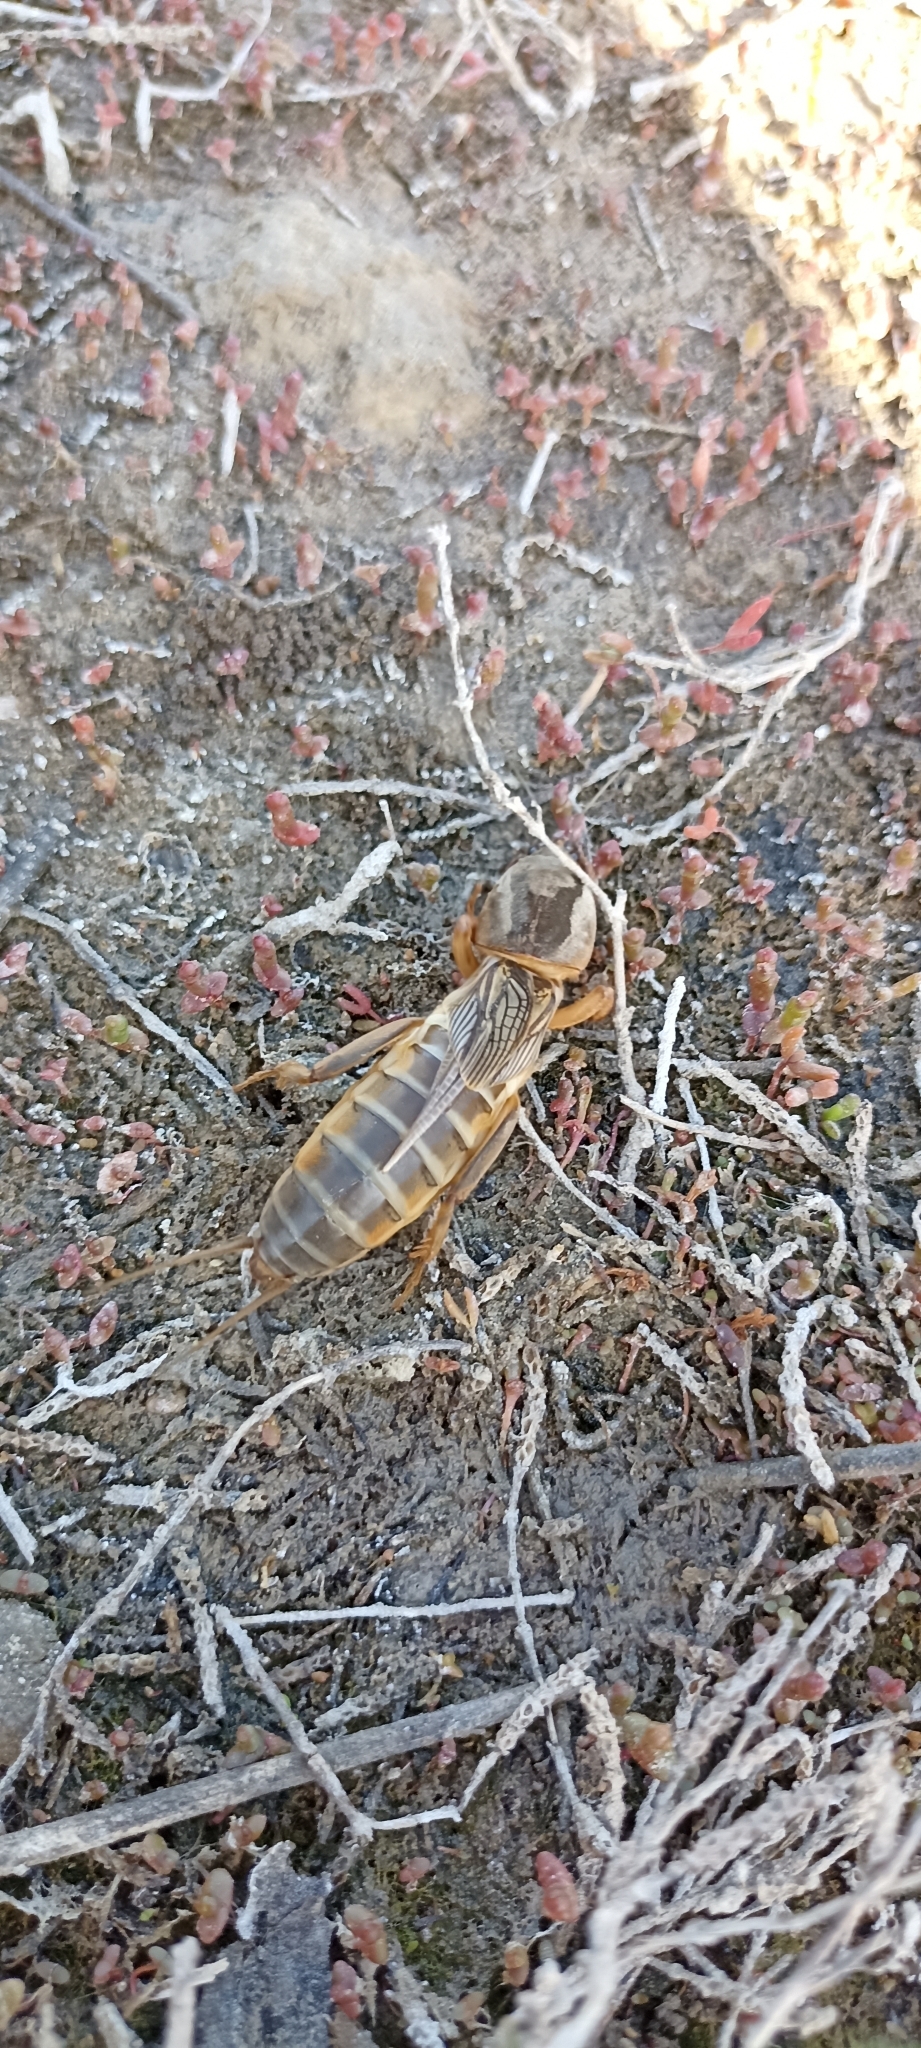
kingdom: Animalia
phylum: Arthropoda
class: Insecta
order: Orthoptera
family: Gryllotalpidae
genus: Gryllotalpa
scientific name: Gryllotalpa septemdecimchromosomica
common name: Seventeen-chromosome mole-cricket
